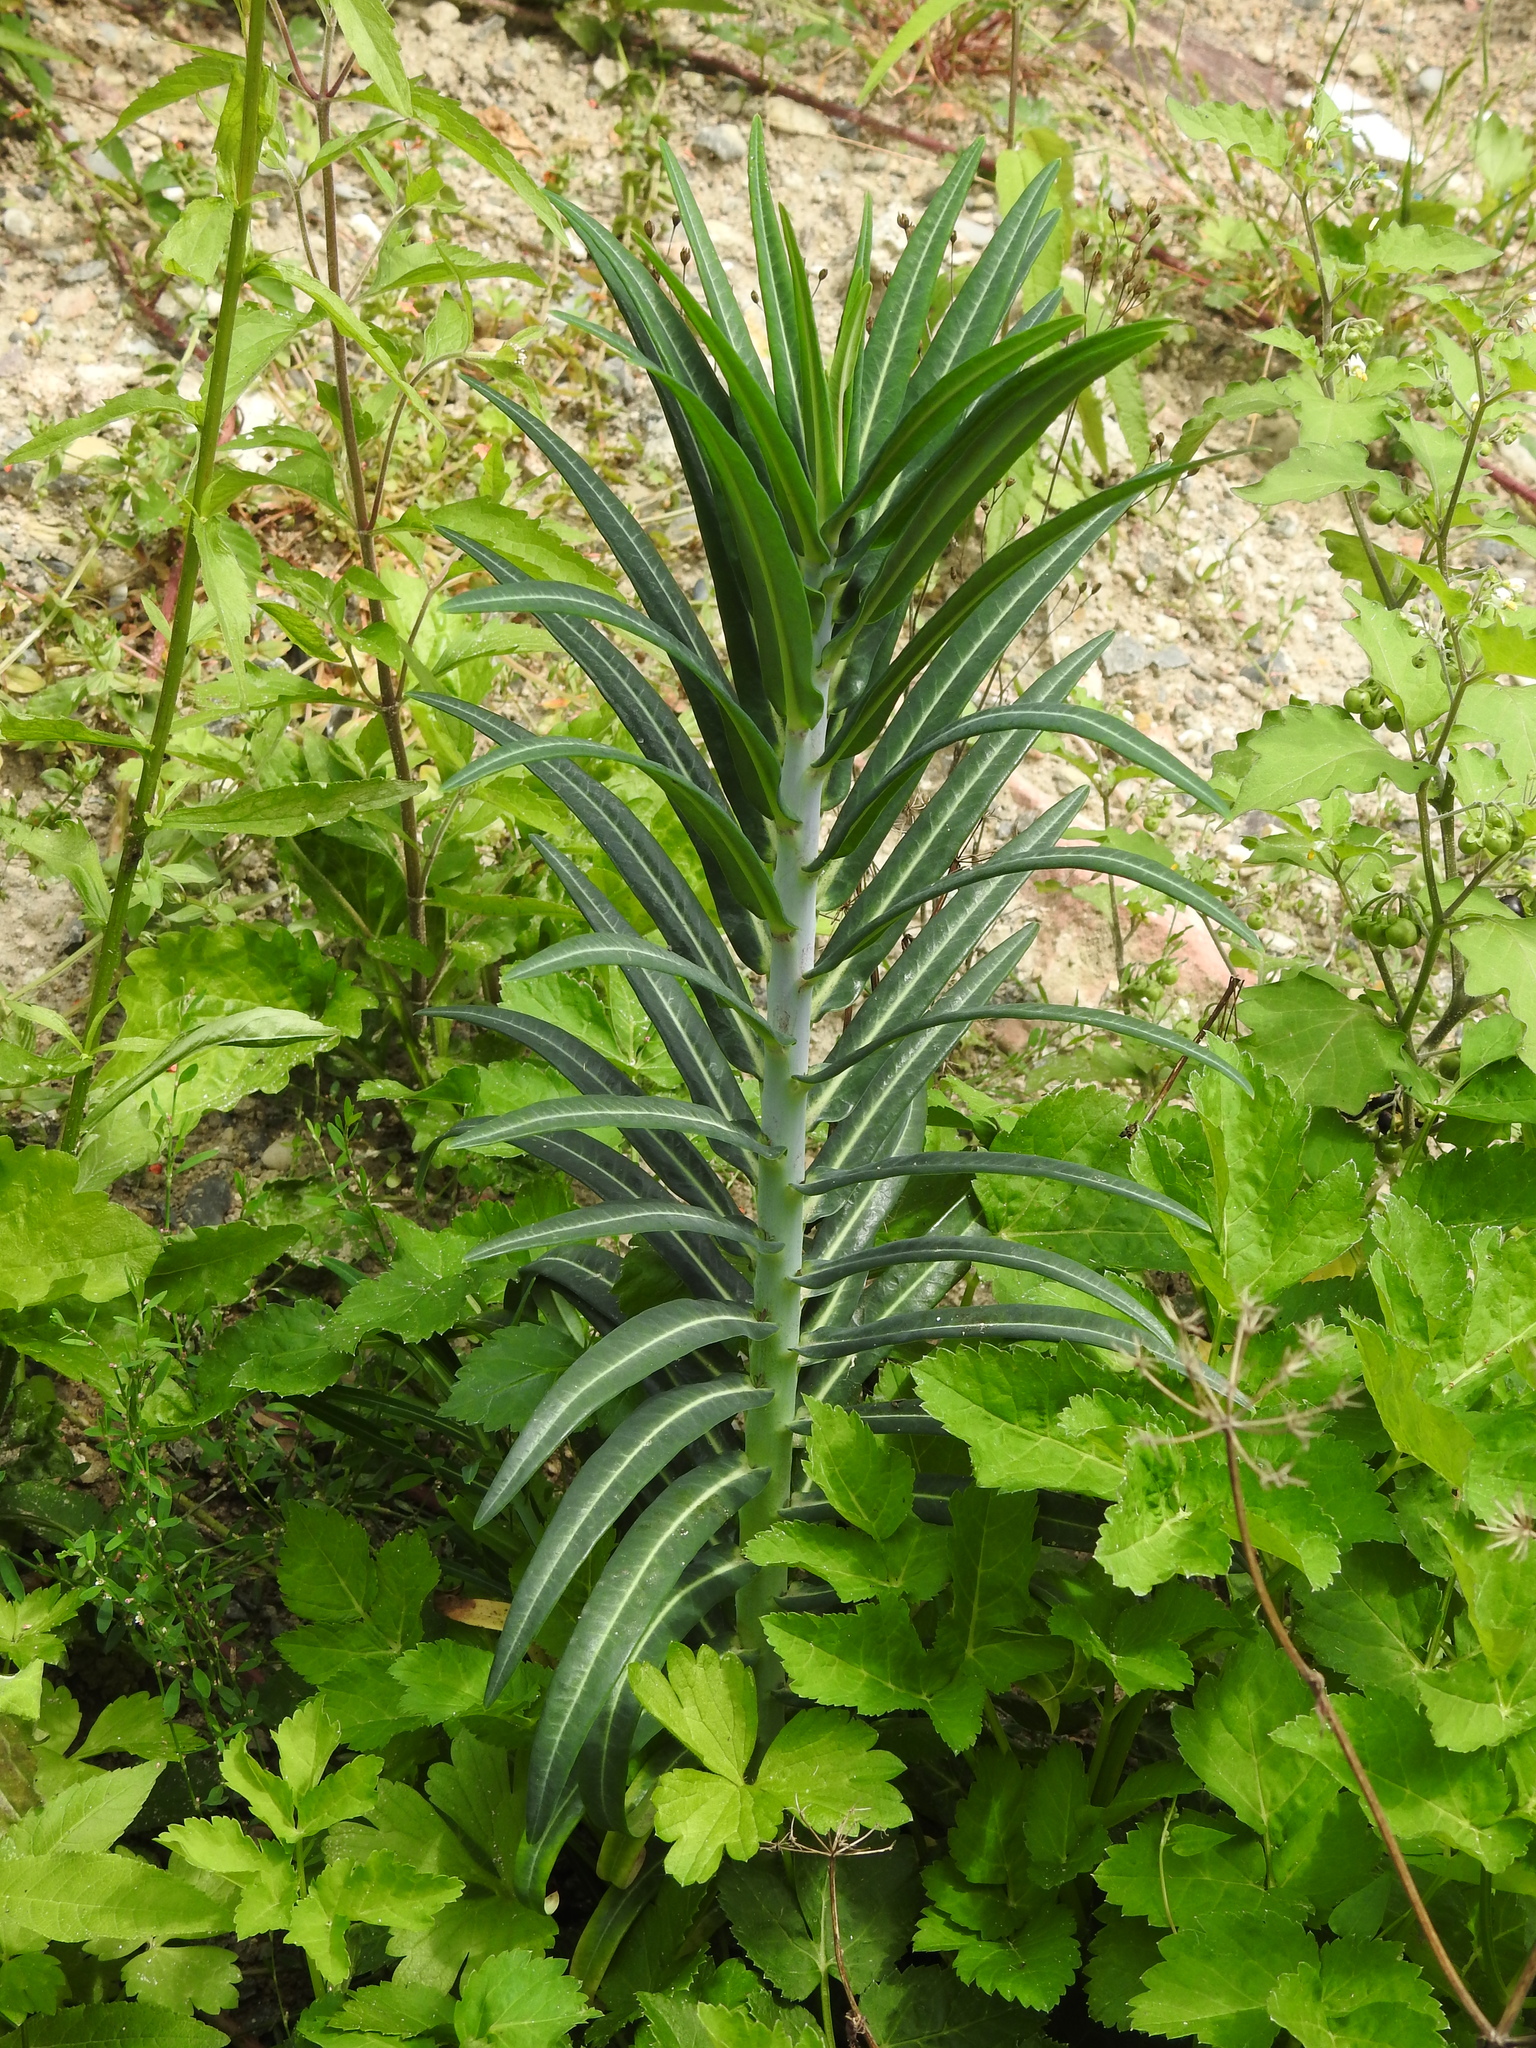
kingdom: Plantae
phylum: Tracheophyta
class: Magnoliopsida
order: Malpighiales
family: Euphorbiaceae
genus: Euphorbia
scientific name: Euphorbia lathyris
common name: Caper spurge
